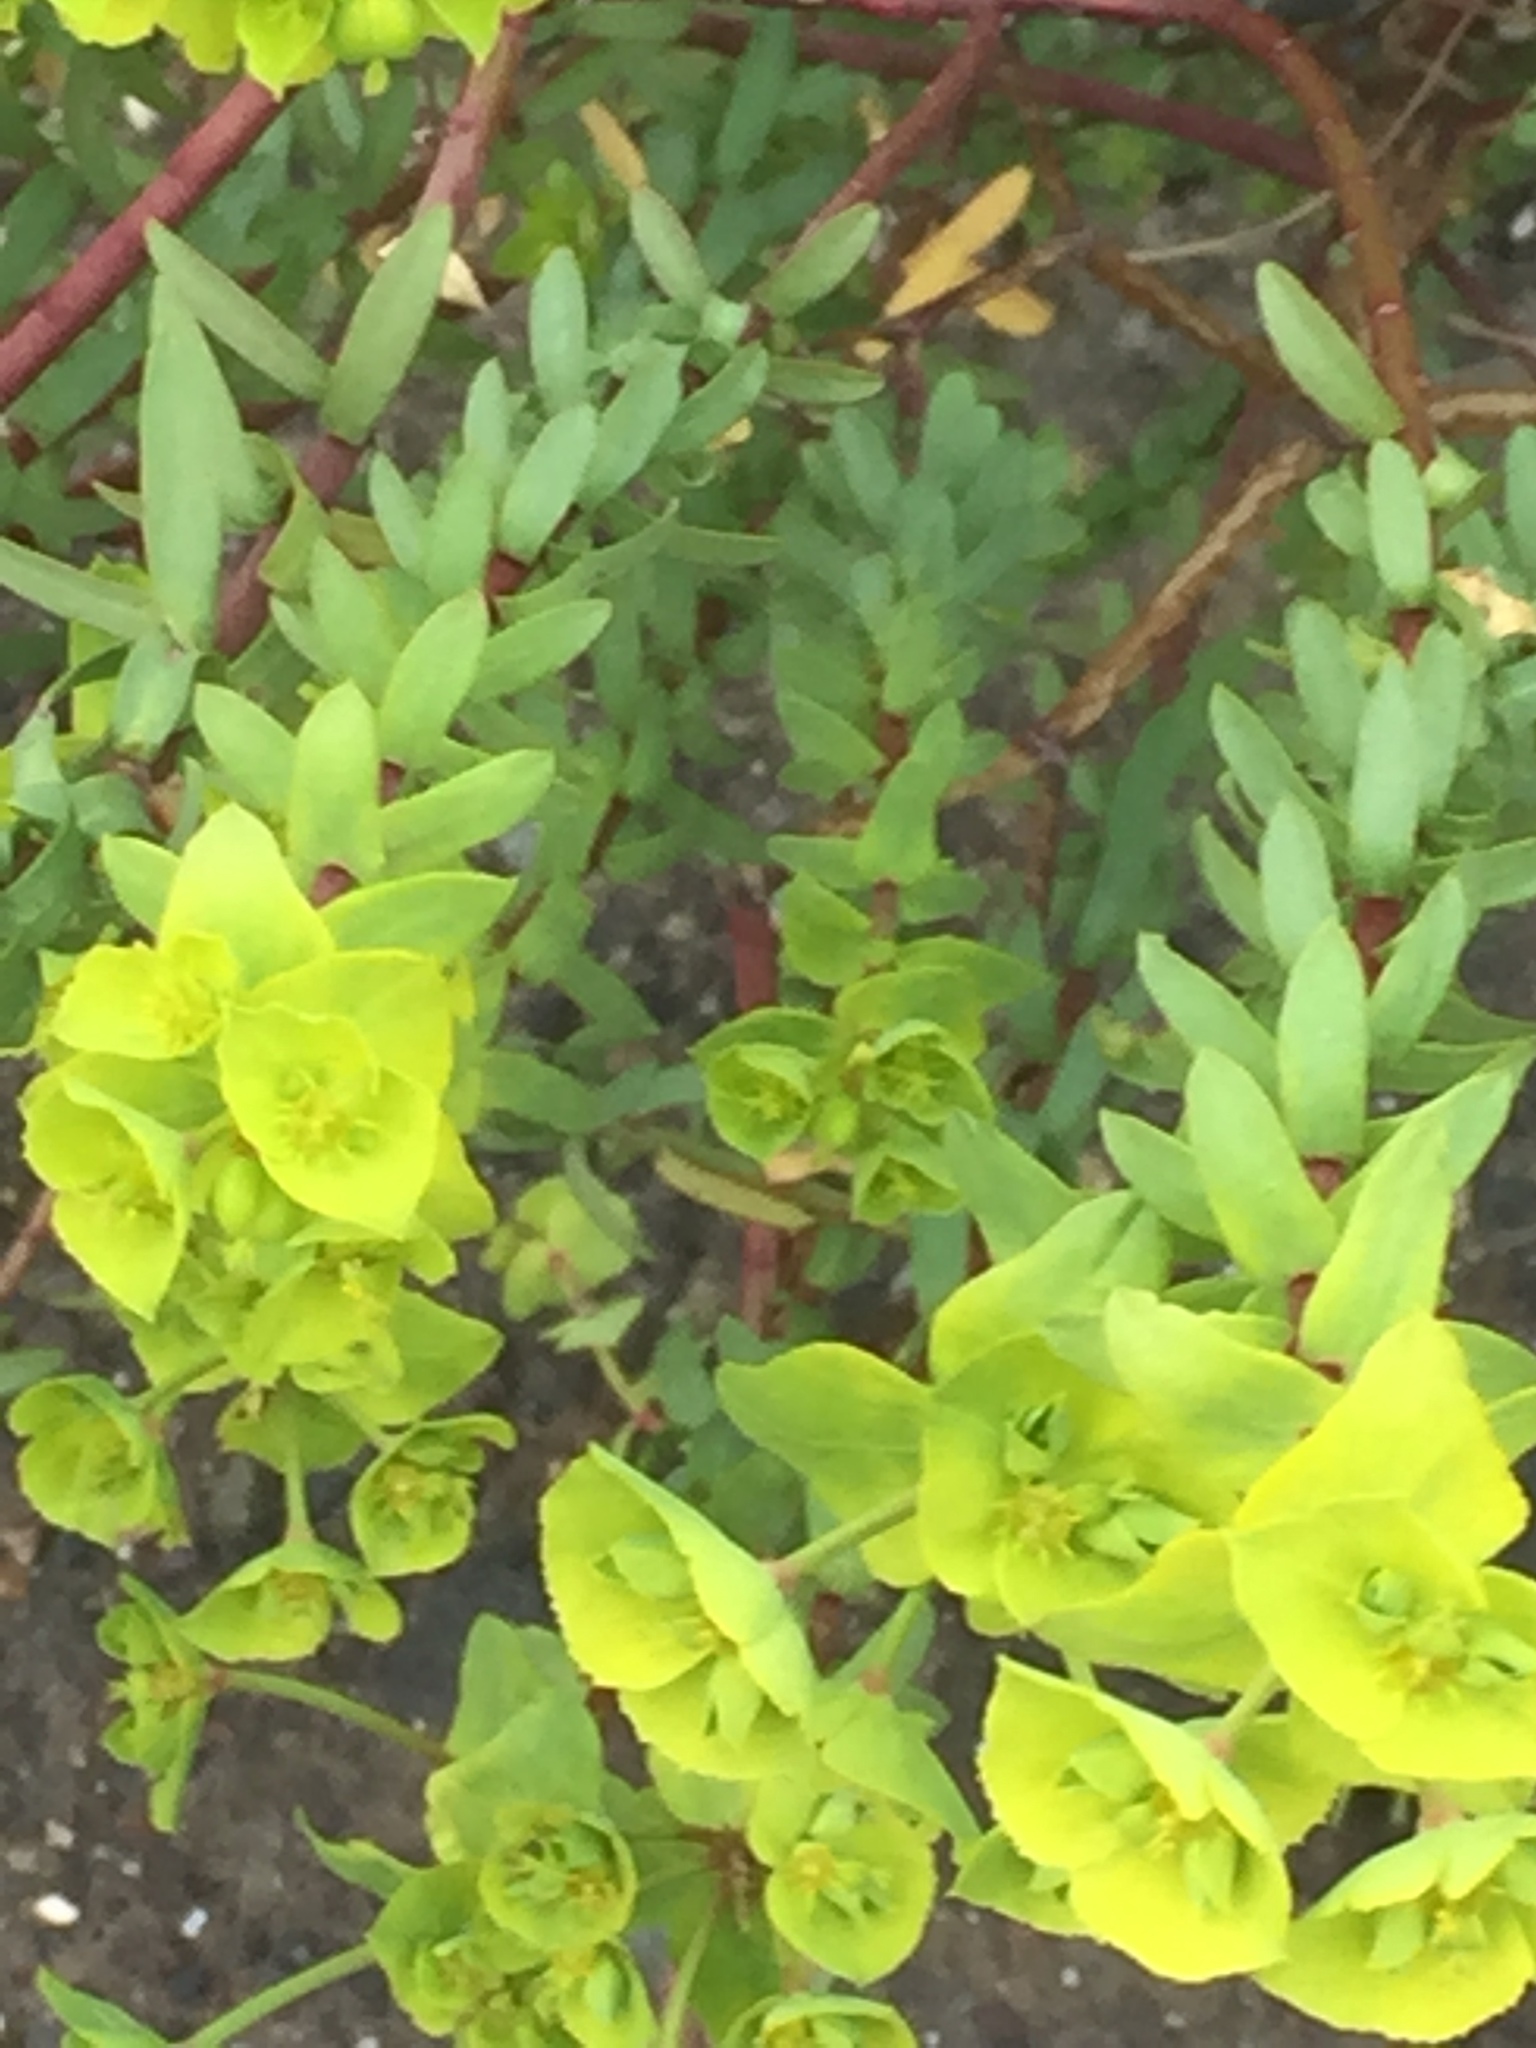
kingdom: Plantae
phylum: Tracheophyta
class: Magnoliopsida
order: Malpighiales
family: Euphorbiaceae
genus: Euphorbia
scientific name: Euphorbia terracina
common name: Geraldton carnation weed
